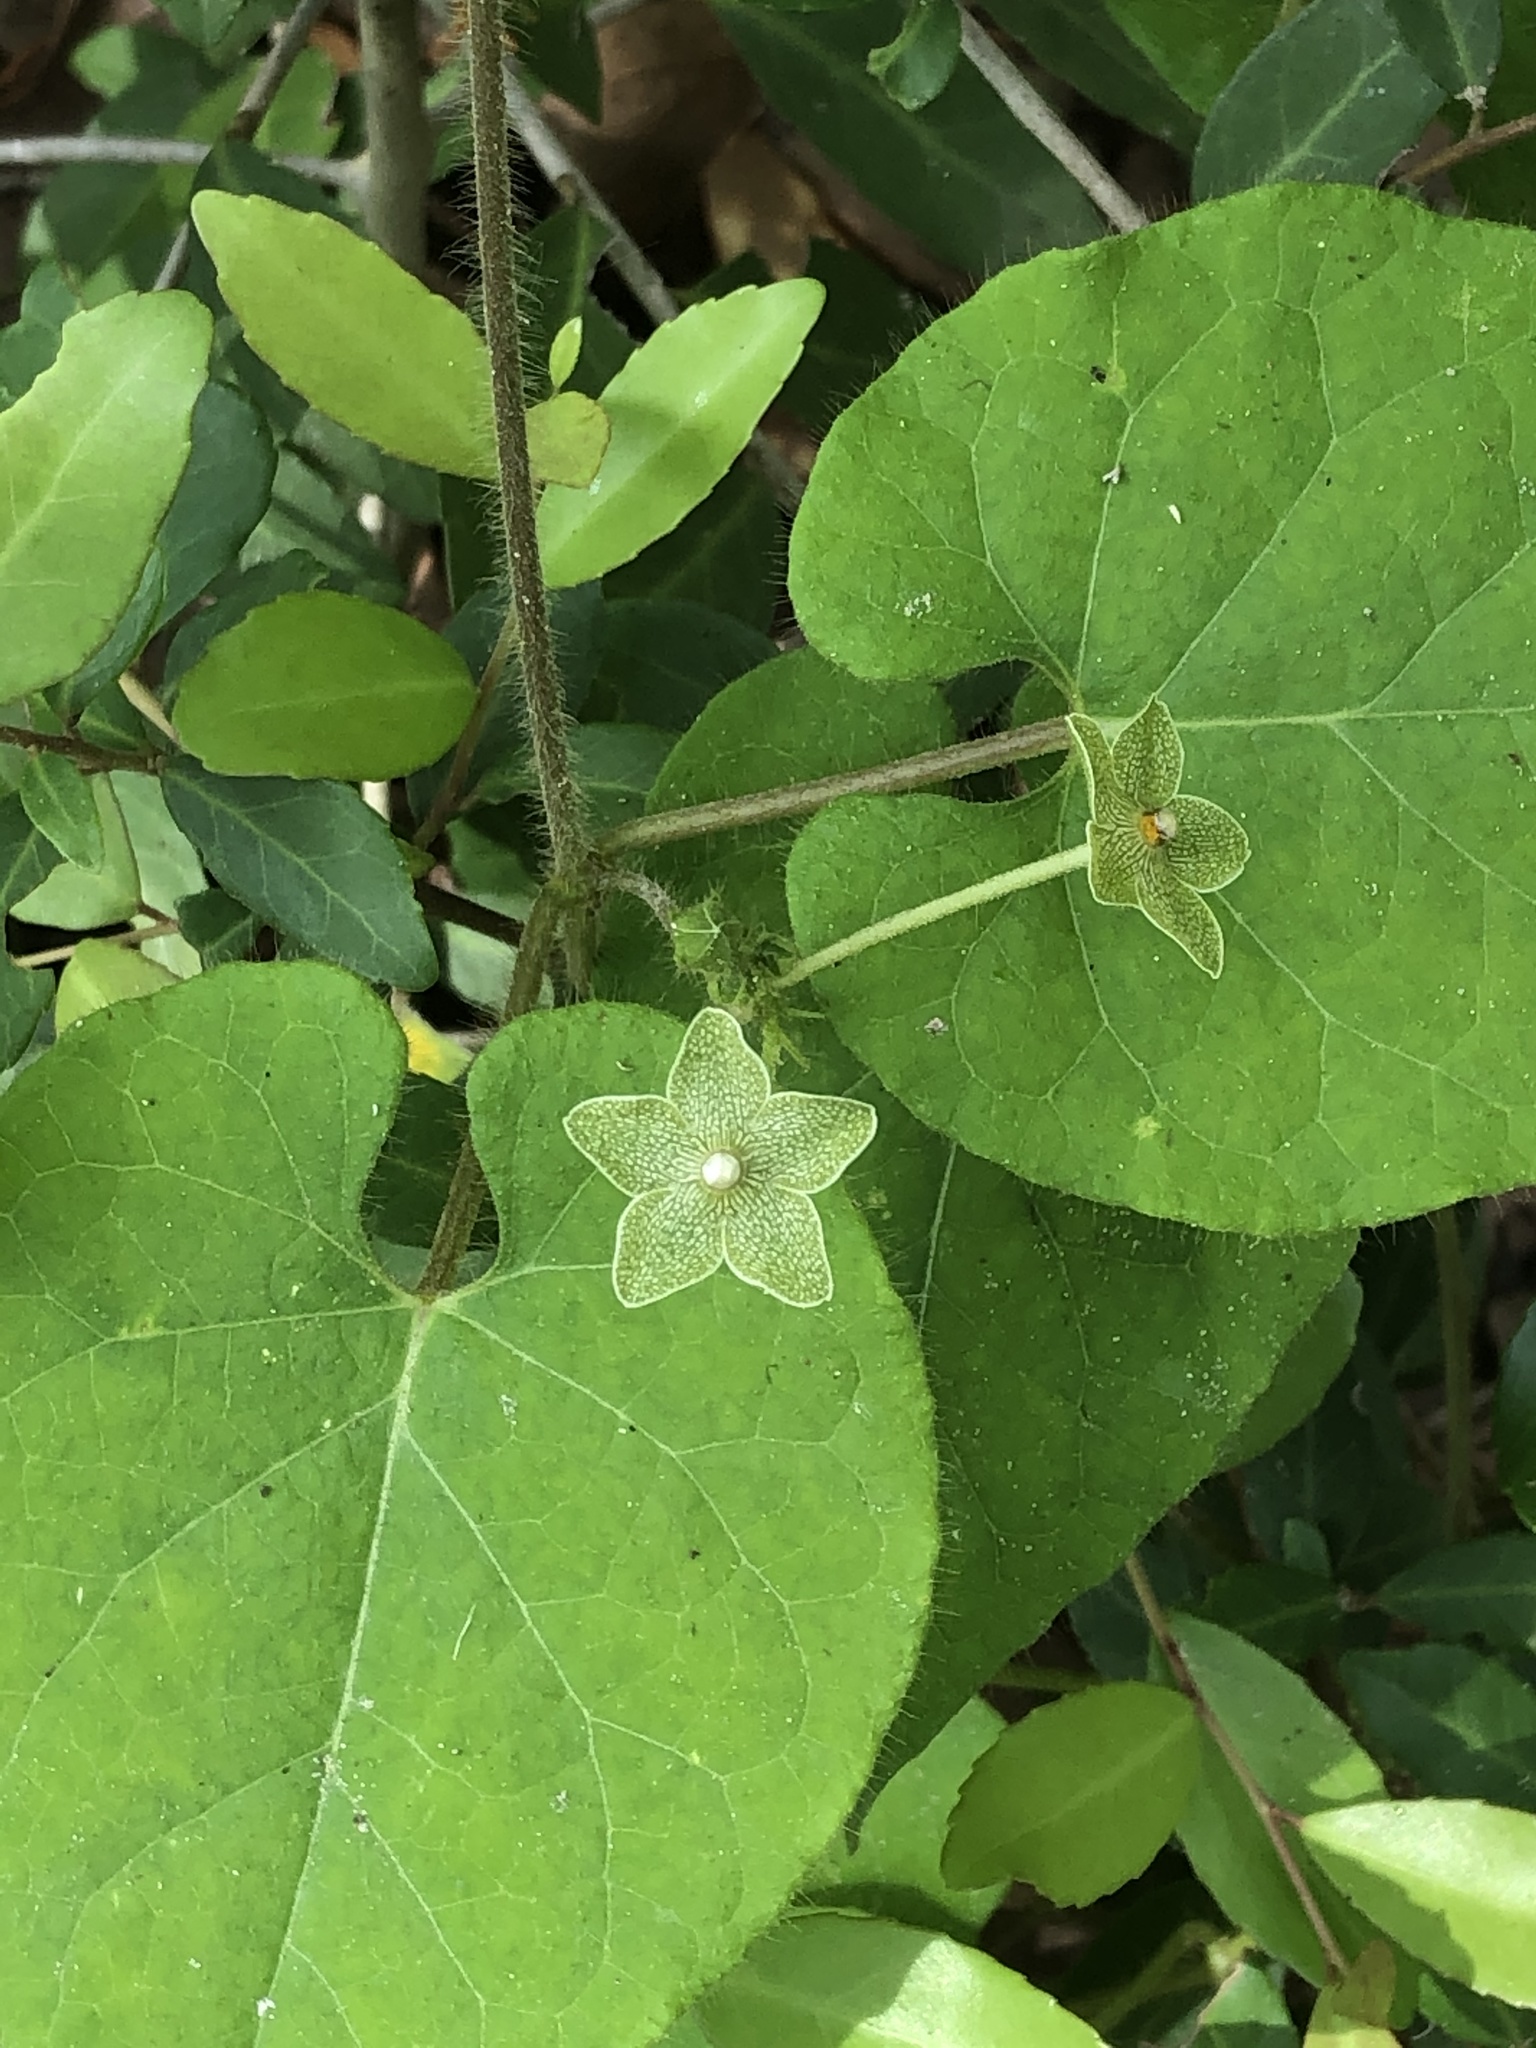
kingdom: Plantae
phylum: Tracheophyta
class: Magnoliopsida
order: Gentianales
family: Apocynaceae
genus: Dictyanthus
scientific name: Dictyanthus reticulatus
